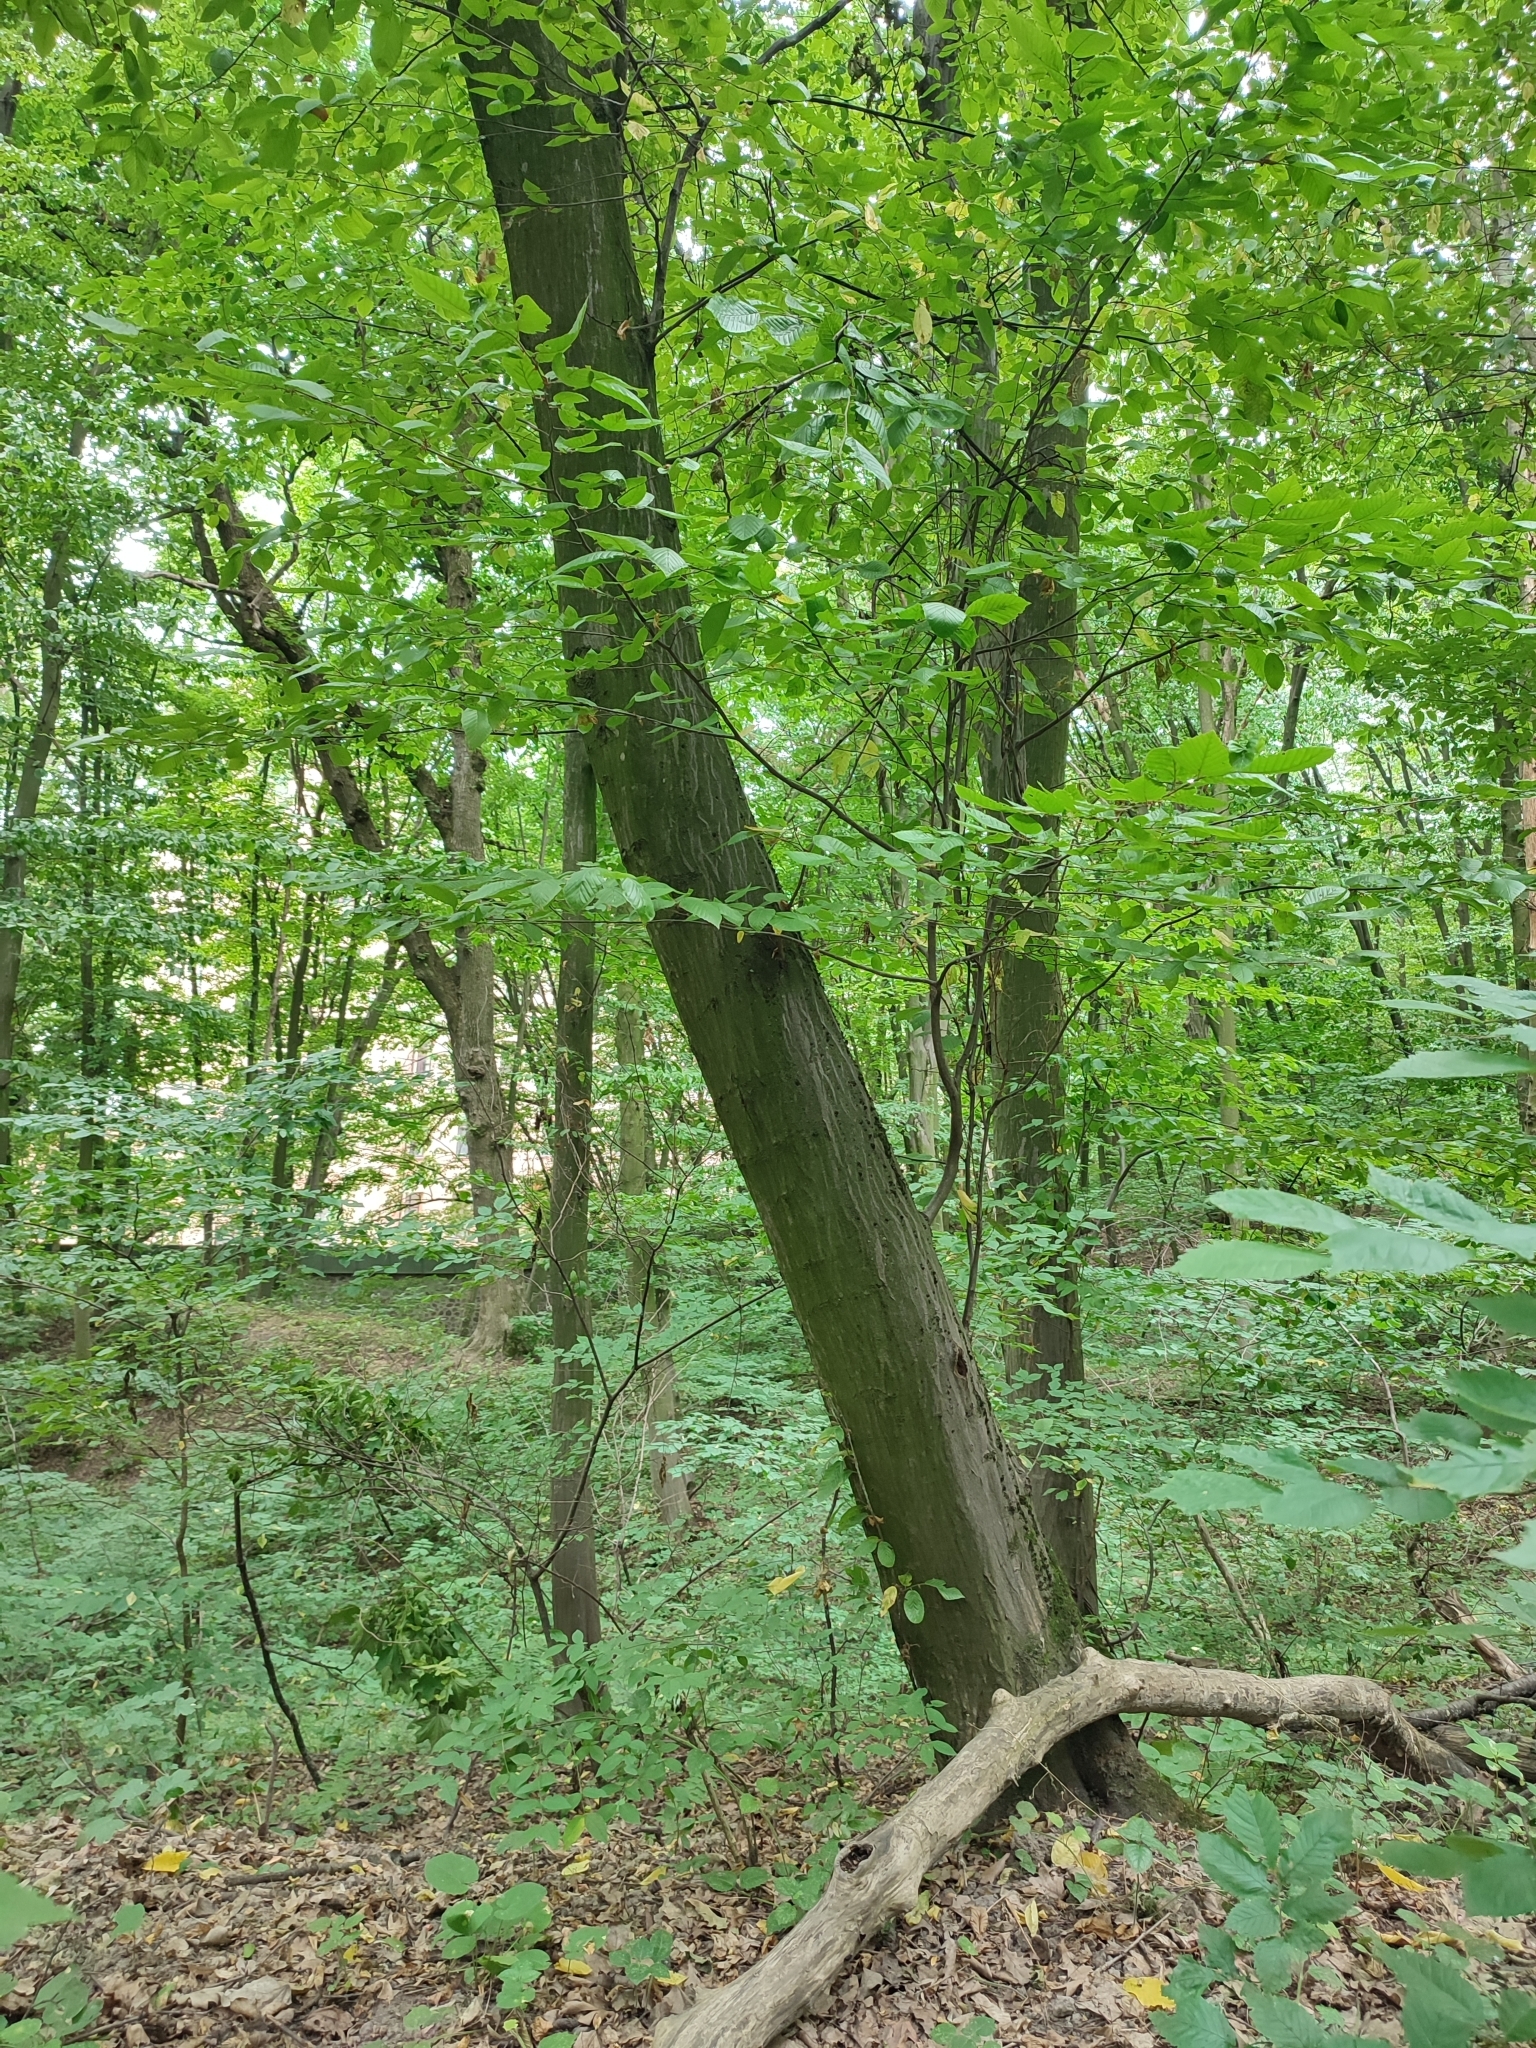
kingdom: Plantae
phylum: Tracheophyta
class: Magnoliopsida
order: Fagales
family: Betulaceae
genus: Carpinus
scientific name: Carpinus betulus
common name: Hornbeam
